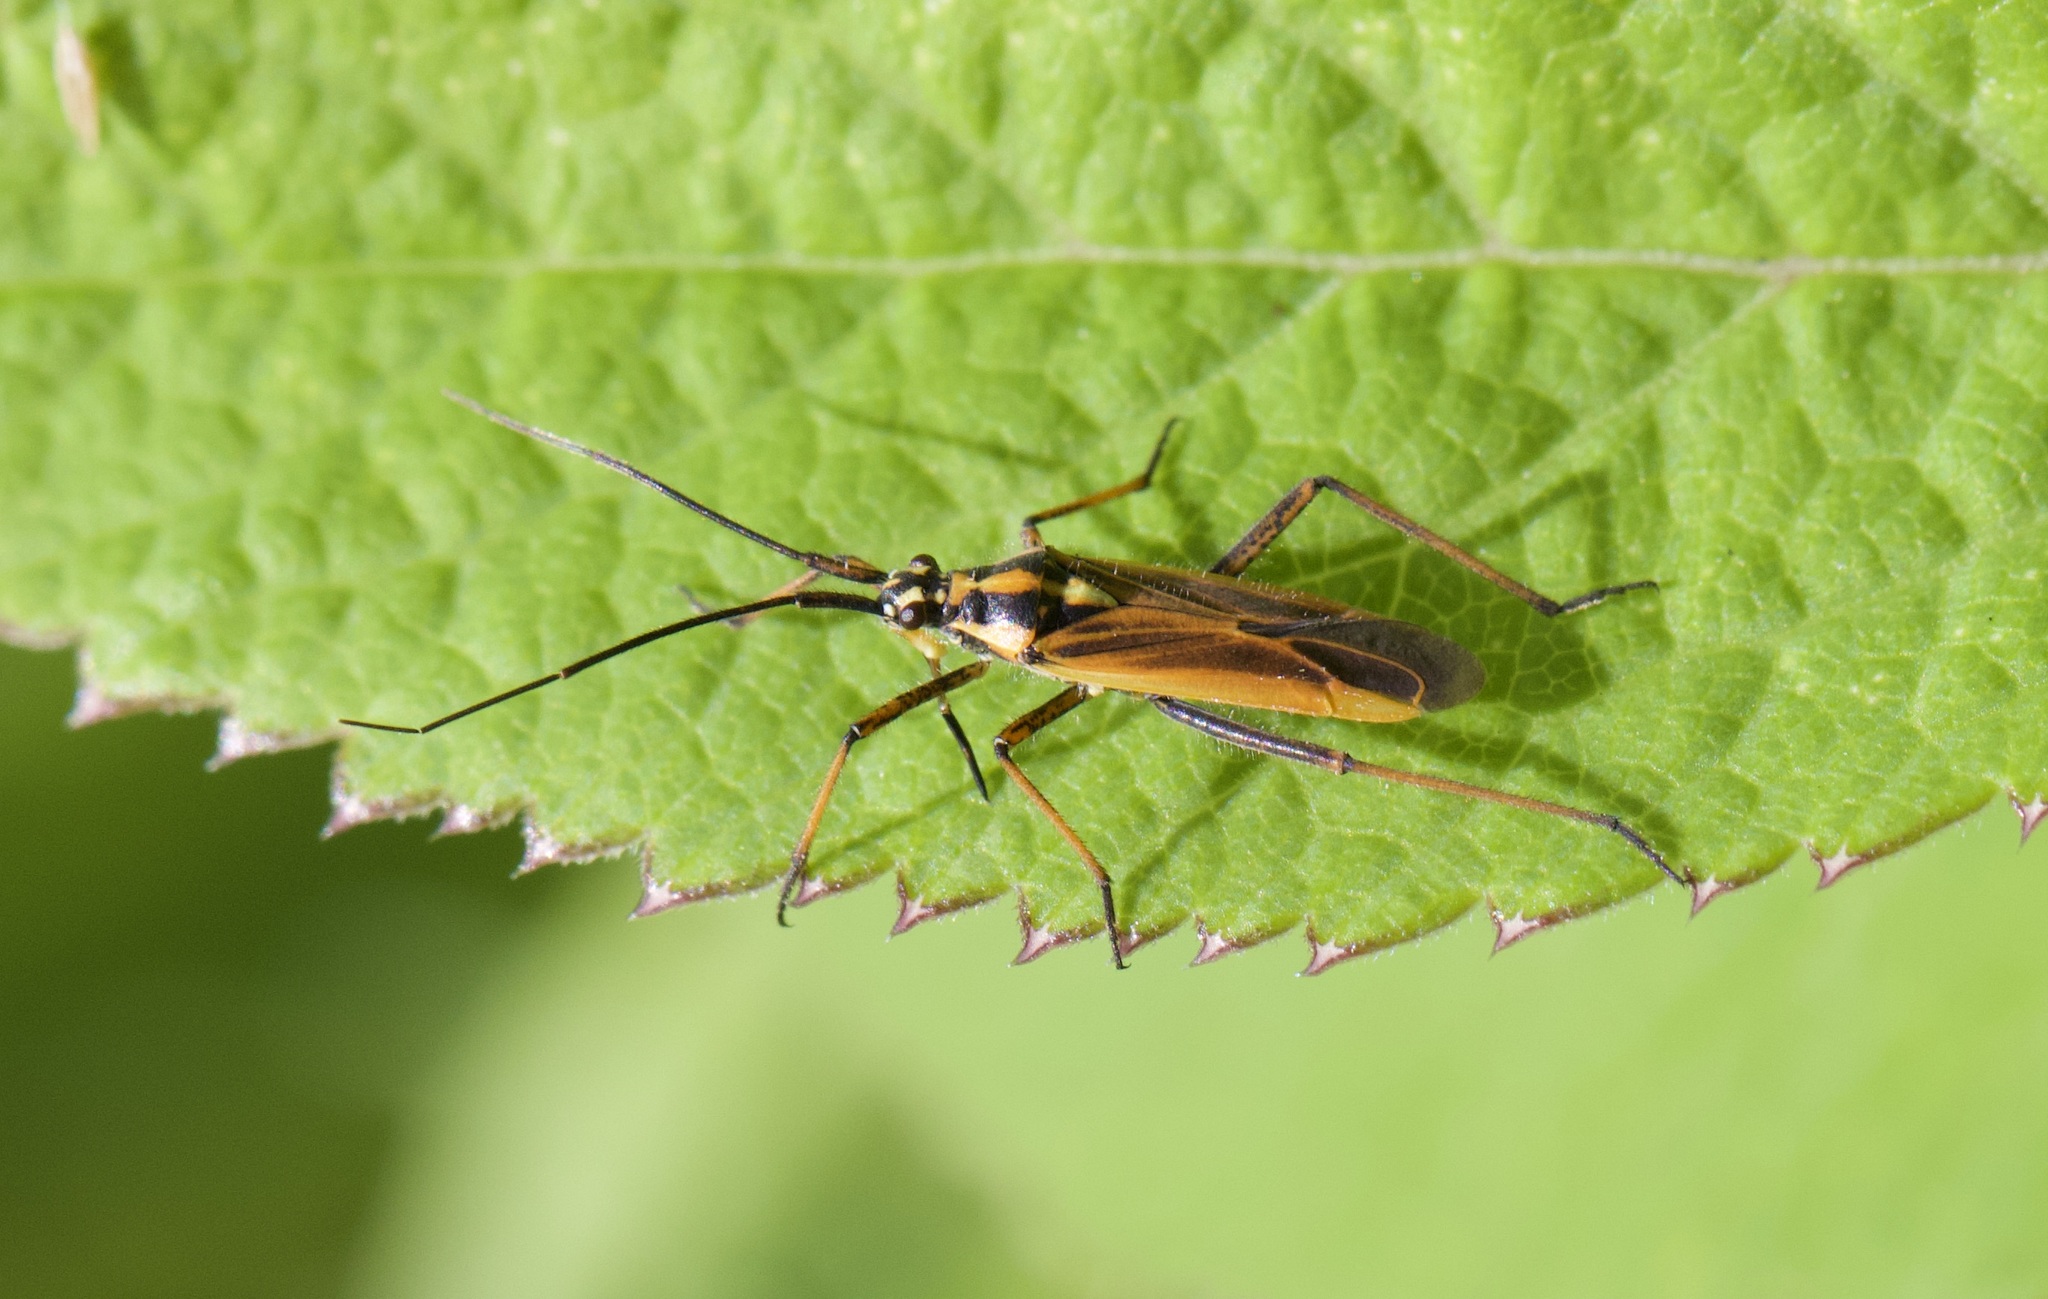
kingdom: Animalia
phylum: Arthropoda
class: Insecta
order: Hemiptera
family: Miridae
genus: Leptopterna
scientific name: Leptopterna dolabrata
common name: Meadow plant bug
